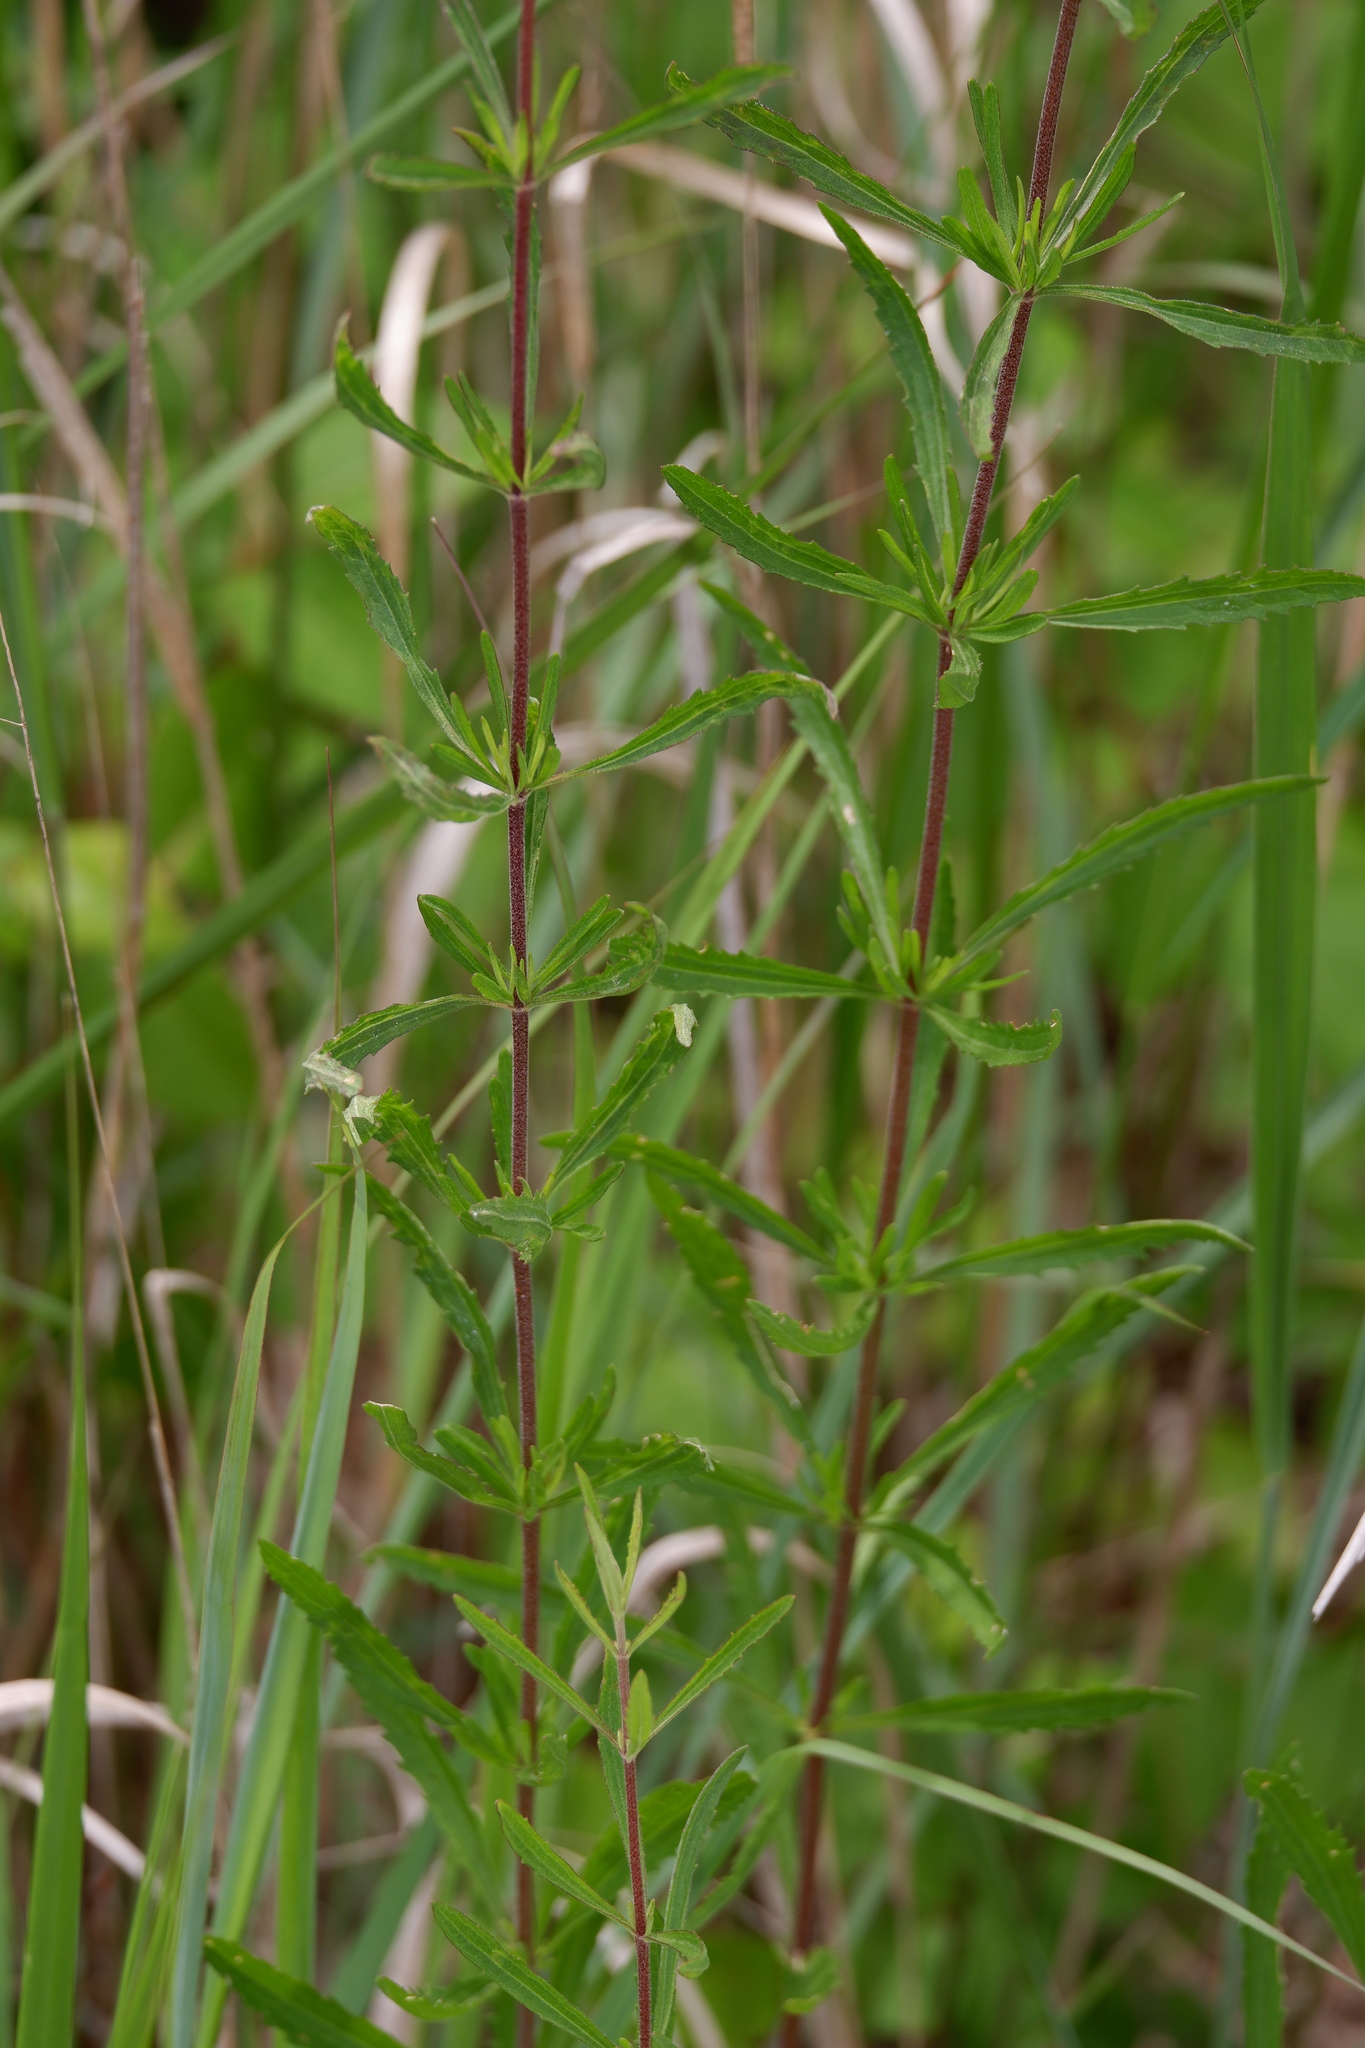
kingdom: Plantae
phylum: Tracheophyta
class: Magnoliopsida
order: Asterales
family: Asteraceae
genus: Eupatorium
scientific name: Eupatorium torreyanum
